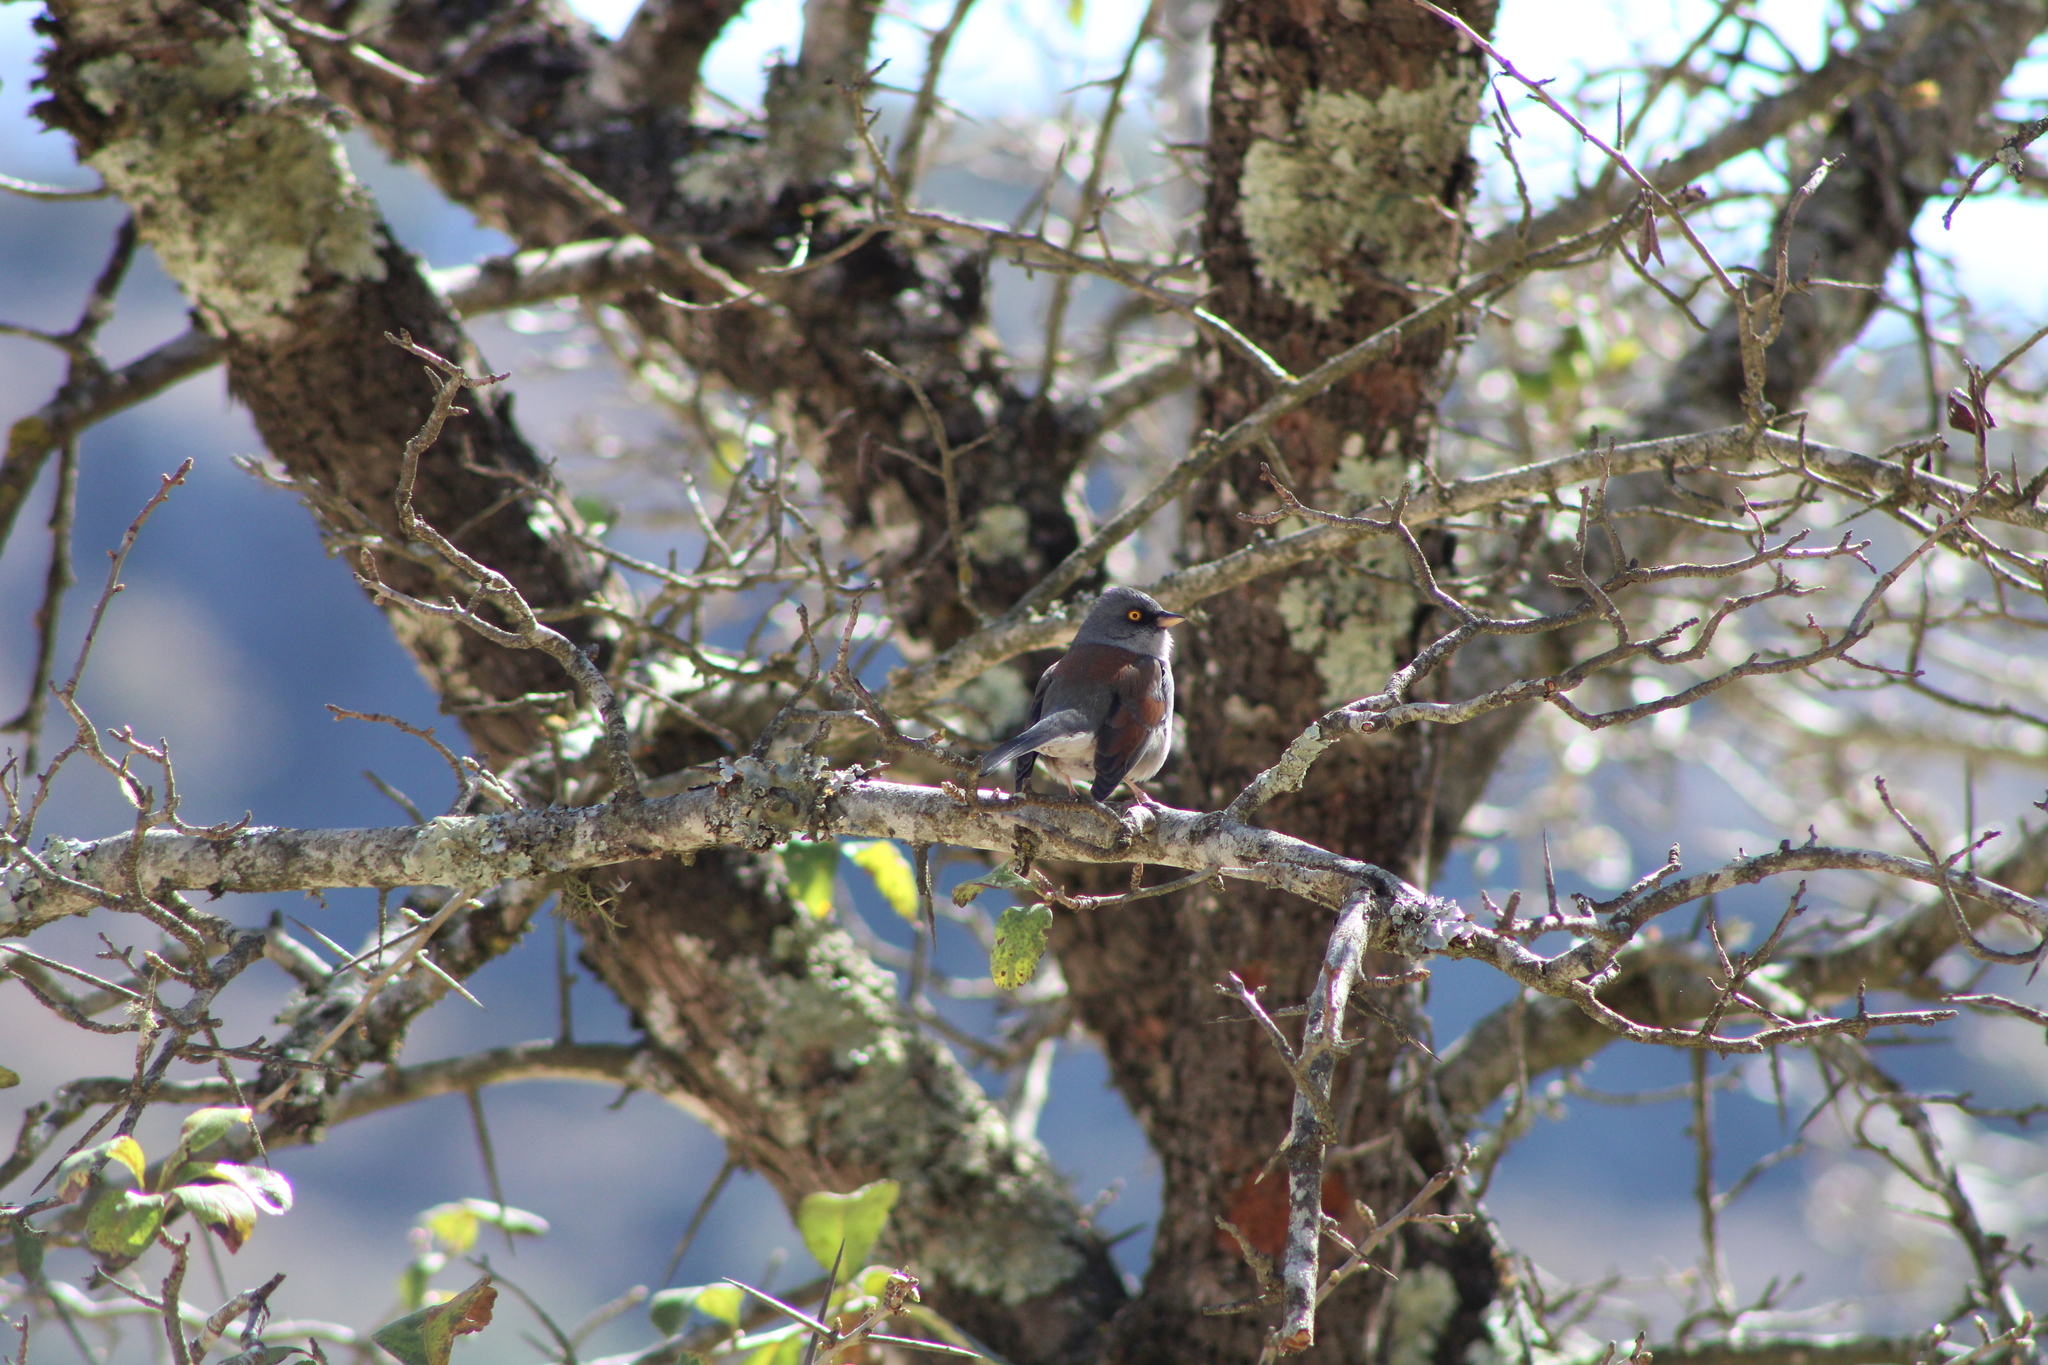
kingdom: Animalia
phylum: Chordata
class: Aves
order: Passeriformes
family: Passerellidae
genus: Junco
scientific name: Junco phaeonotus
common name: Yellow-eyed junco
